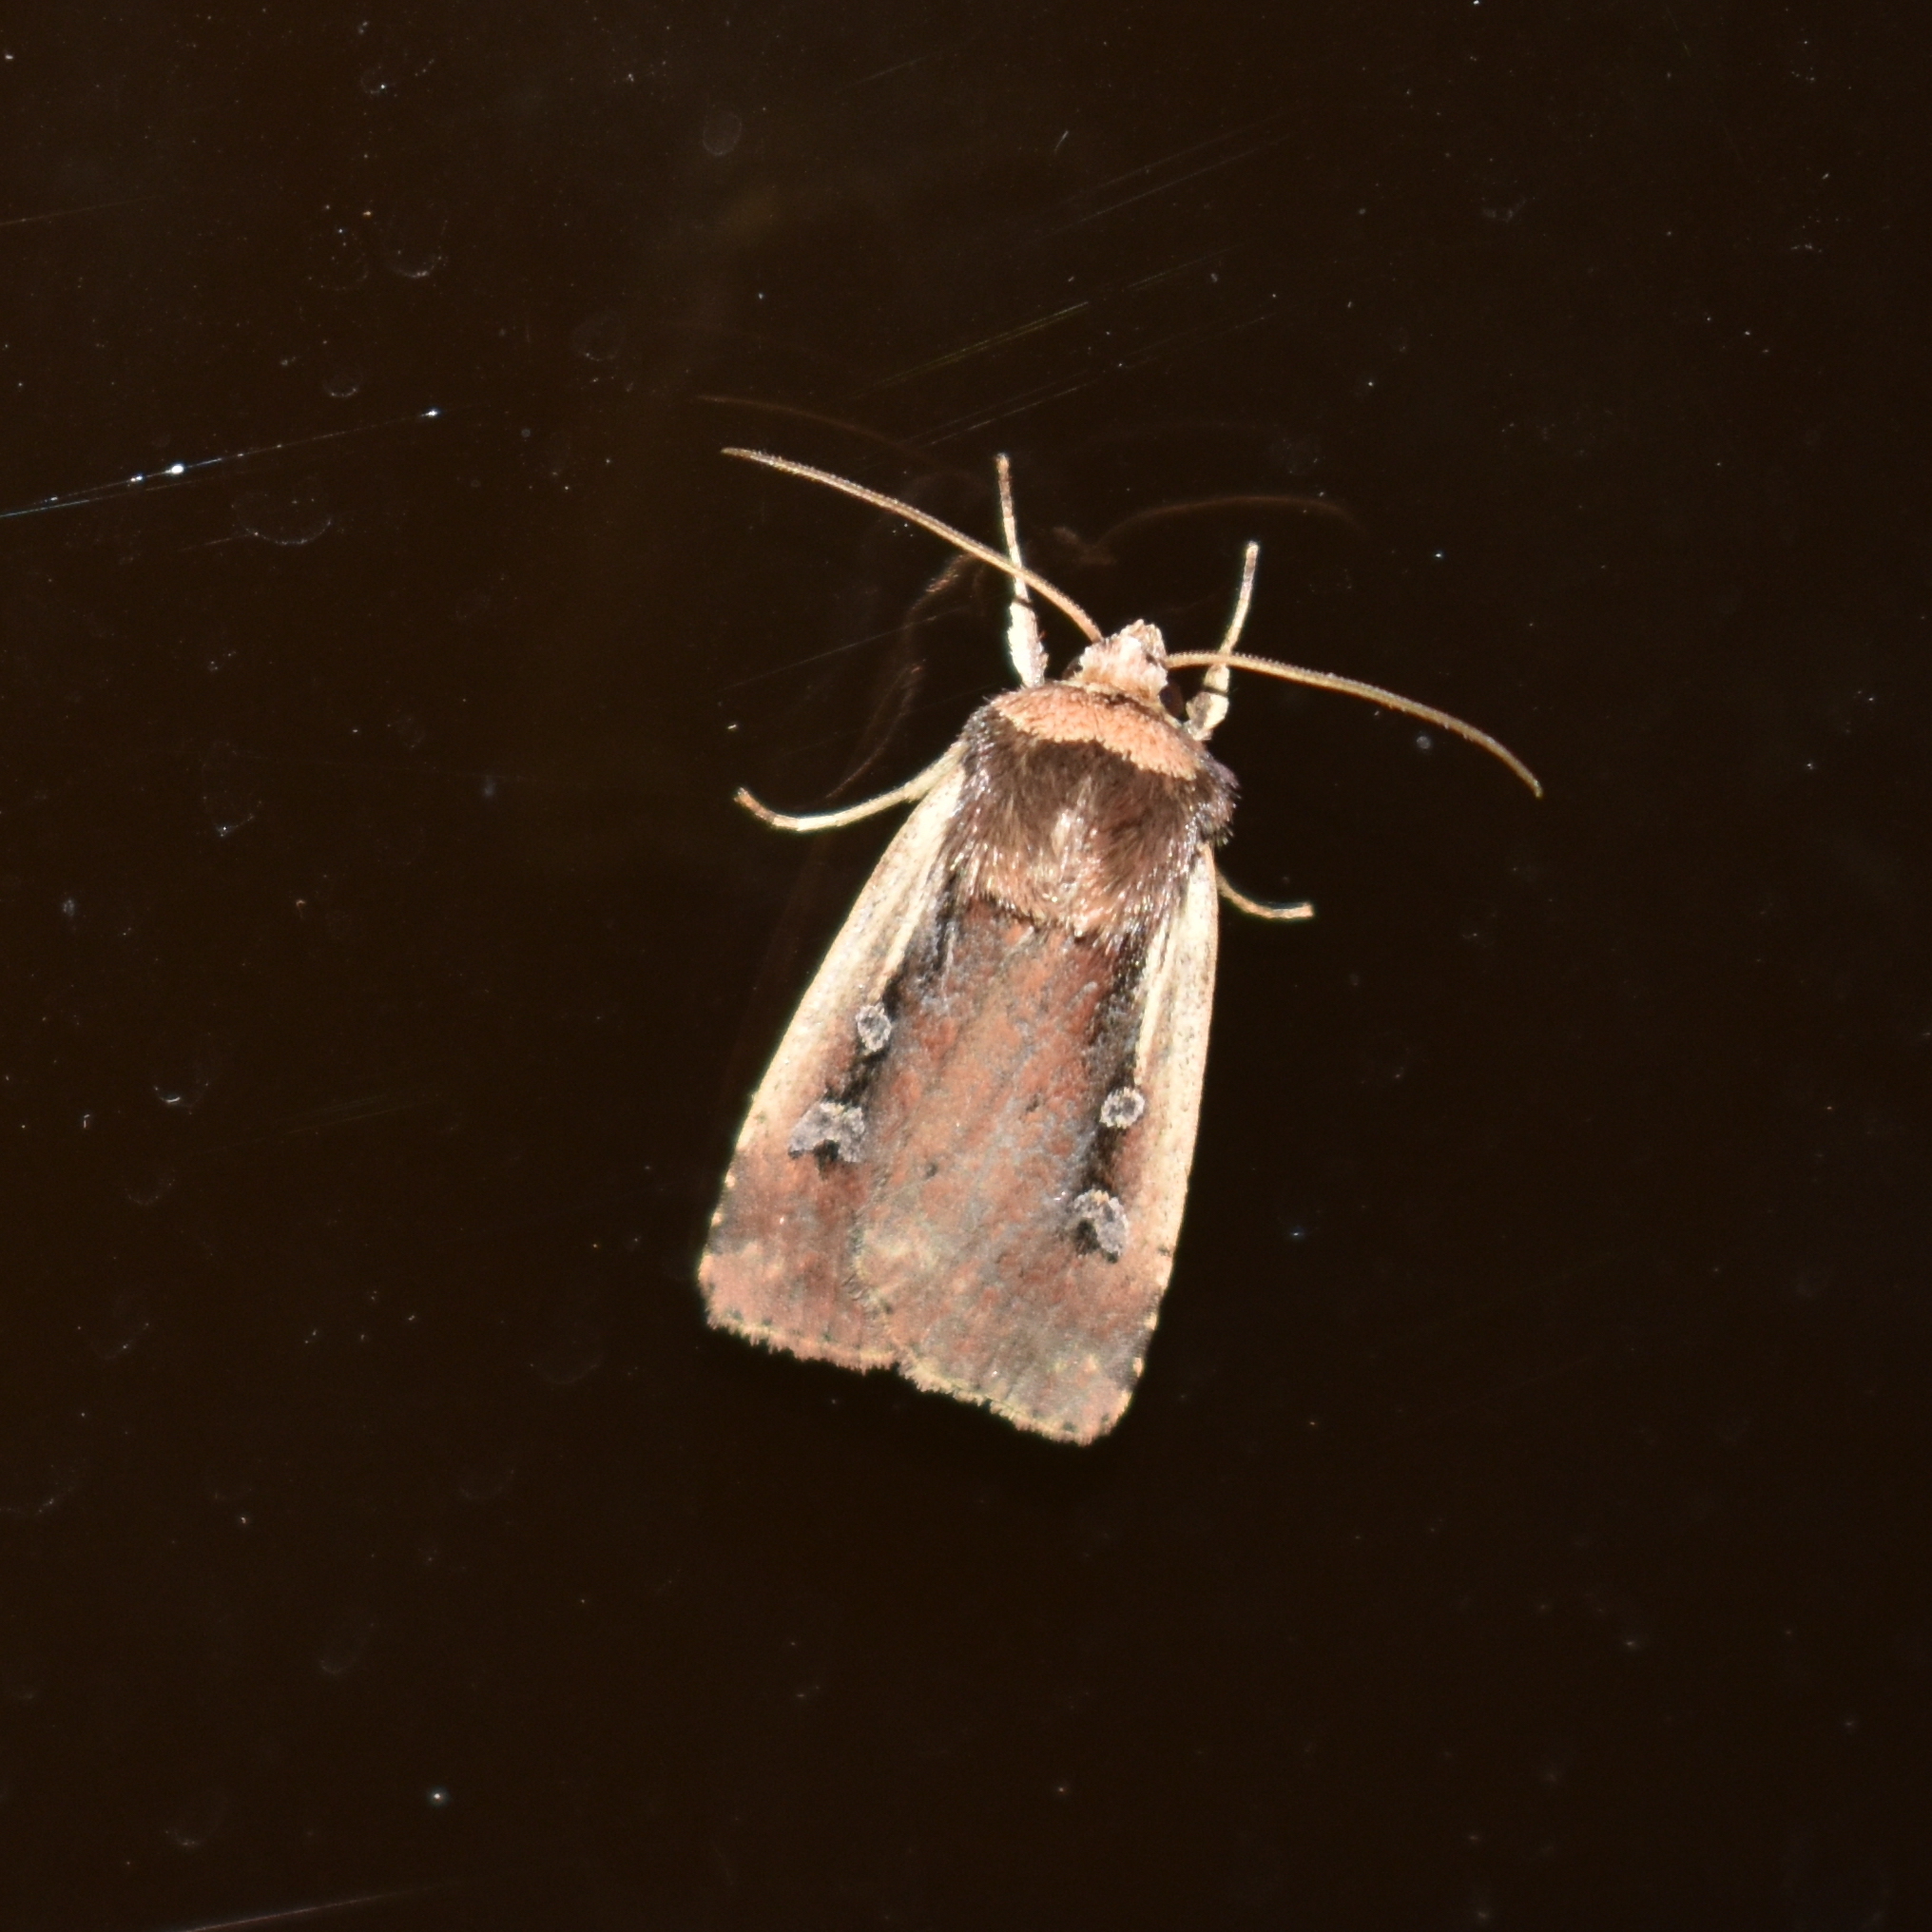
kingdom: Animalia
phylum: Arthropoda
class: Insecta
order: Lepidoptera
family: Noctuidae
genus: Ochropleura
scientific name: Ochropleura implecta
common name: Flame-shouldered dart
